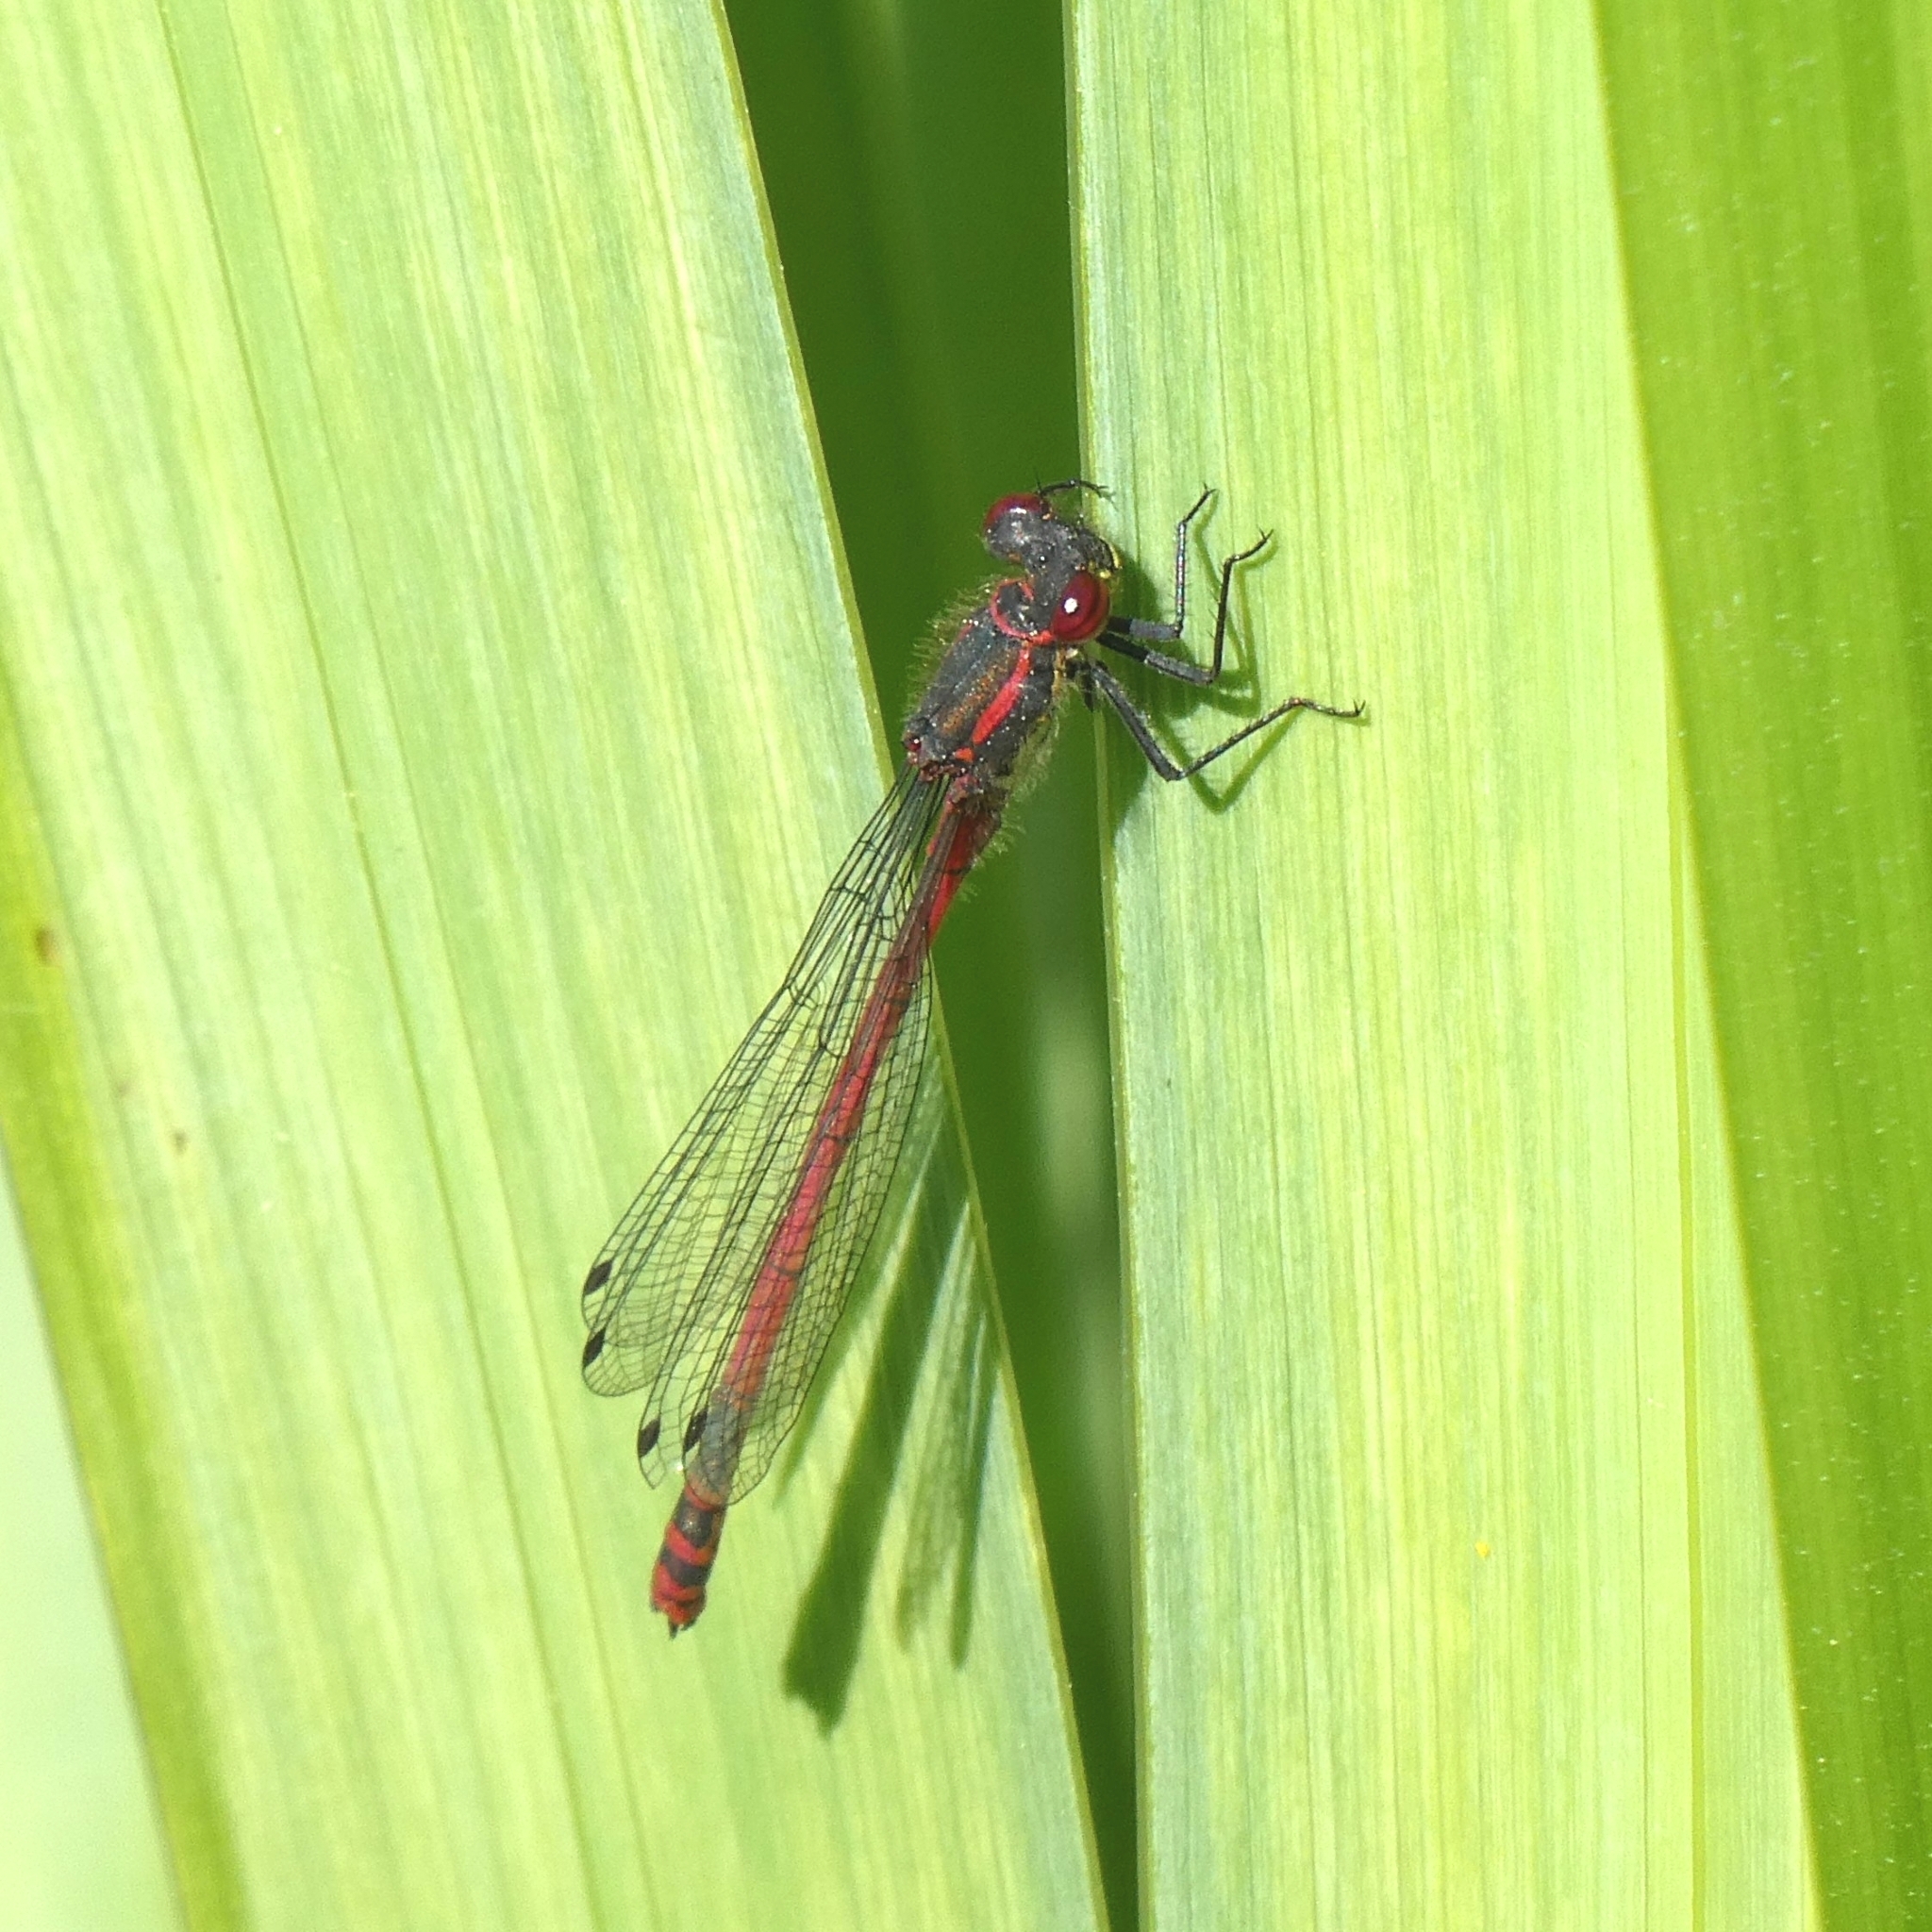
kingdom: Animalia
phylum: Arthropoda
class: Insecta
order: Odonata
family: Coenagrionidae
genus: Pyrrhosoma
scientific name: Pyrrhosoma nymphula
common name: Large red damsel
